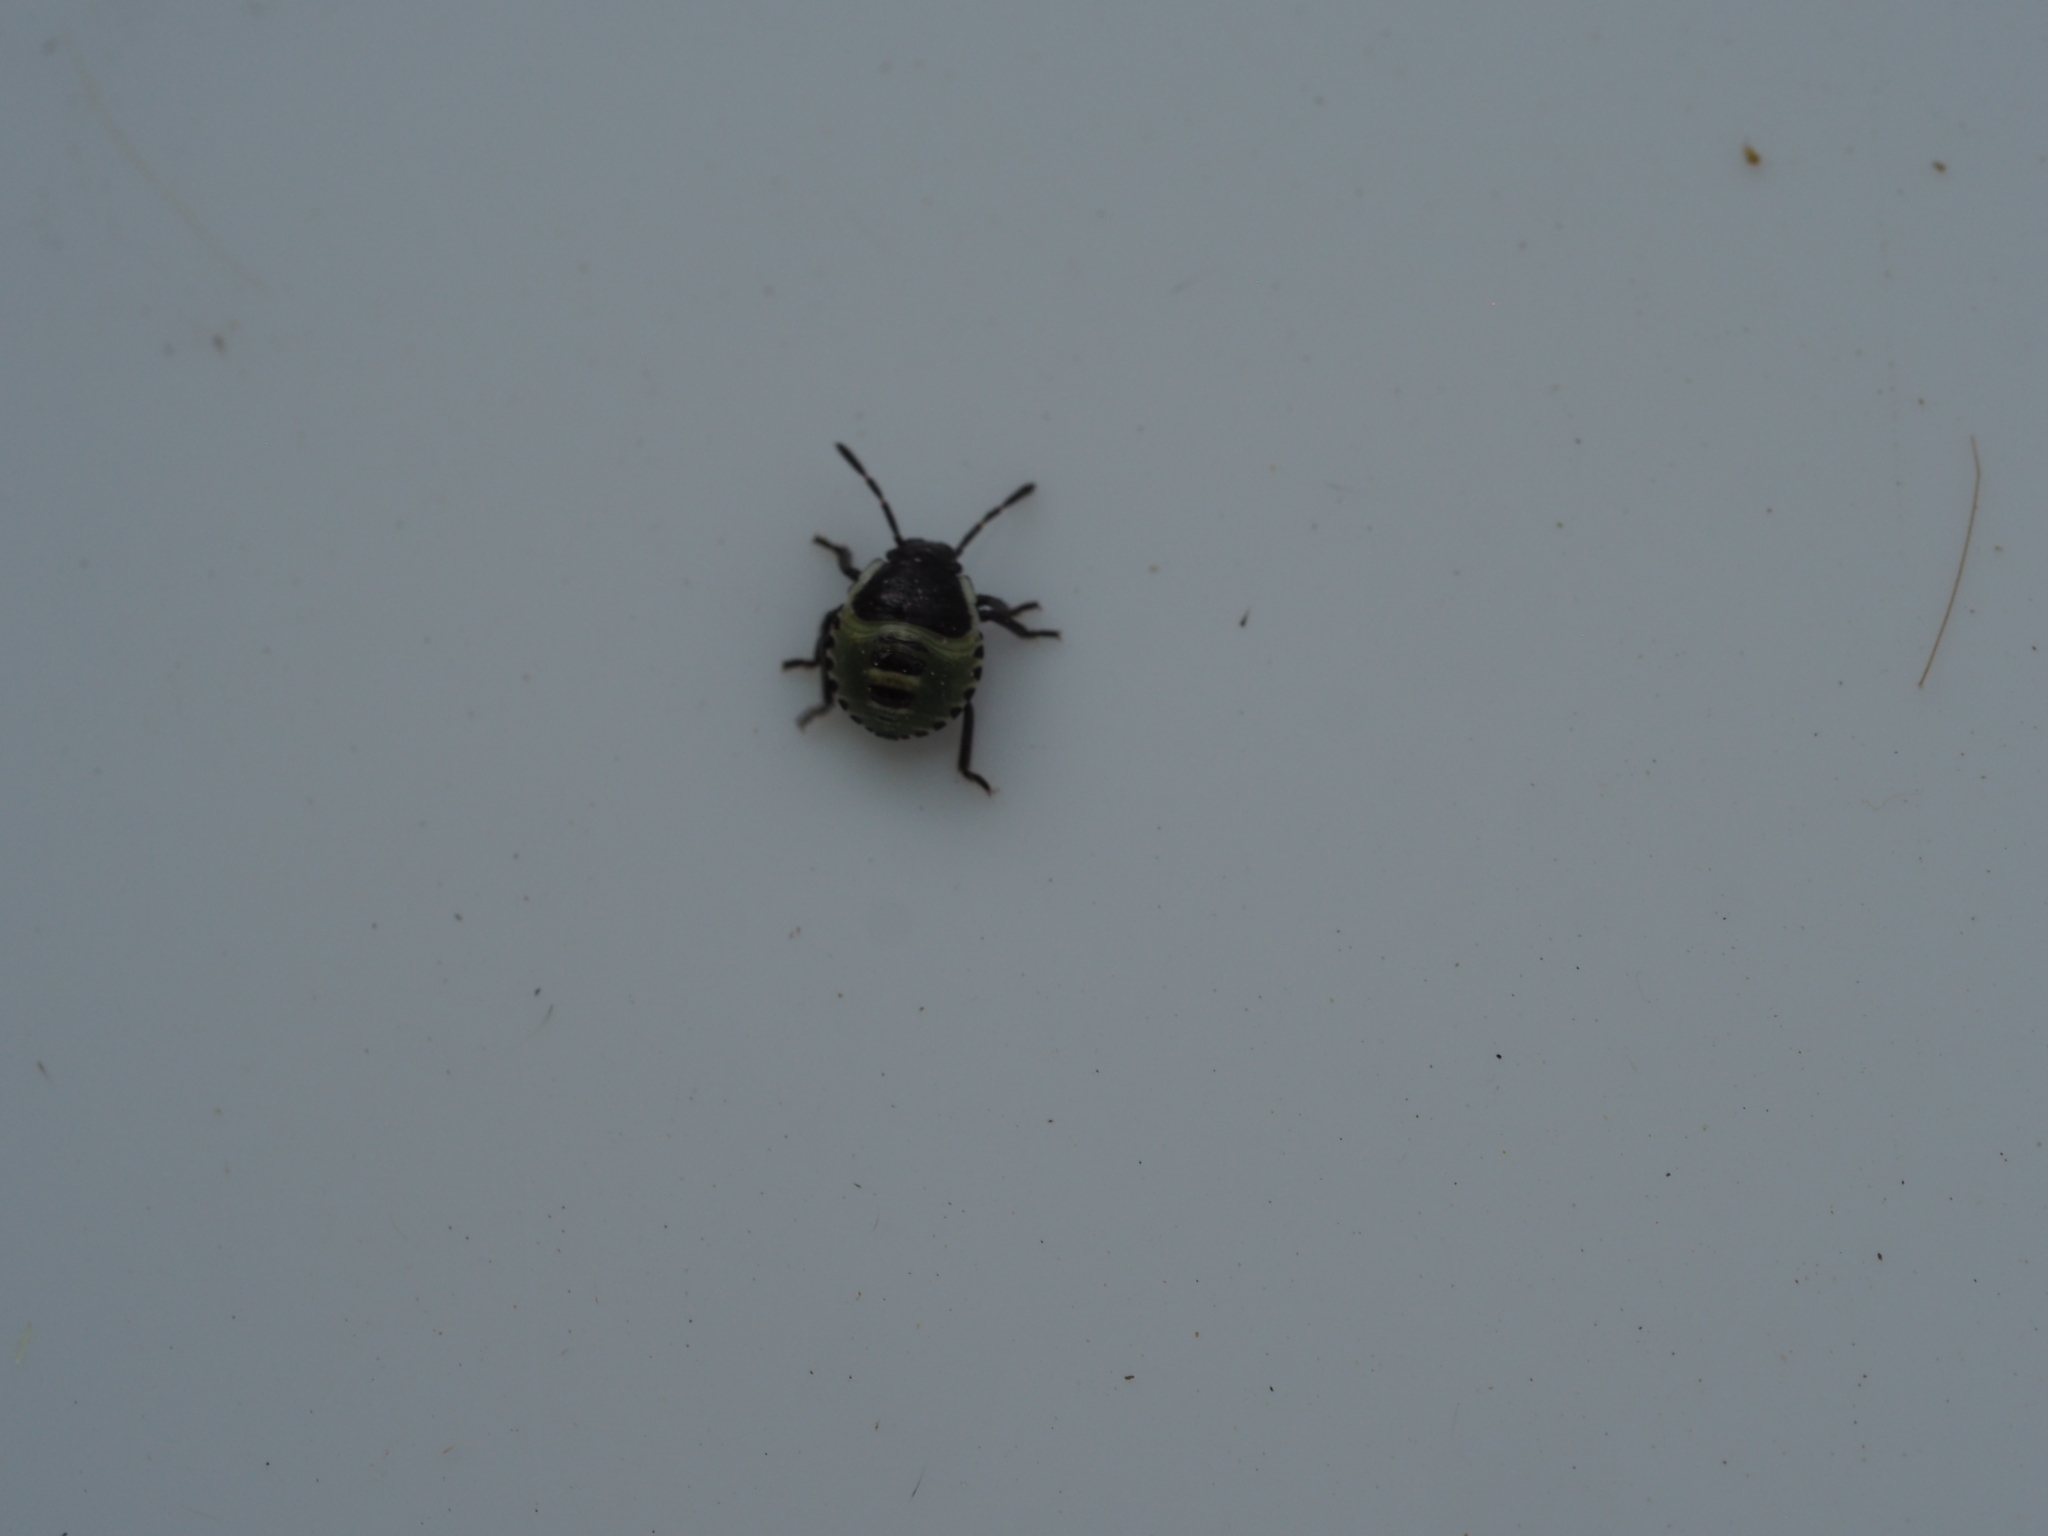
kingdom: Animalia
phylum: Arthropoda
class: Insecta
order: Hemiptera
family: Pentatomidae
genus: Palomena
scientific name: Palomena prasina
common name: Green shieldbug
